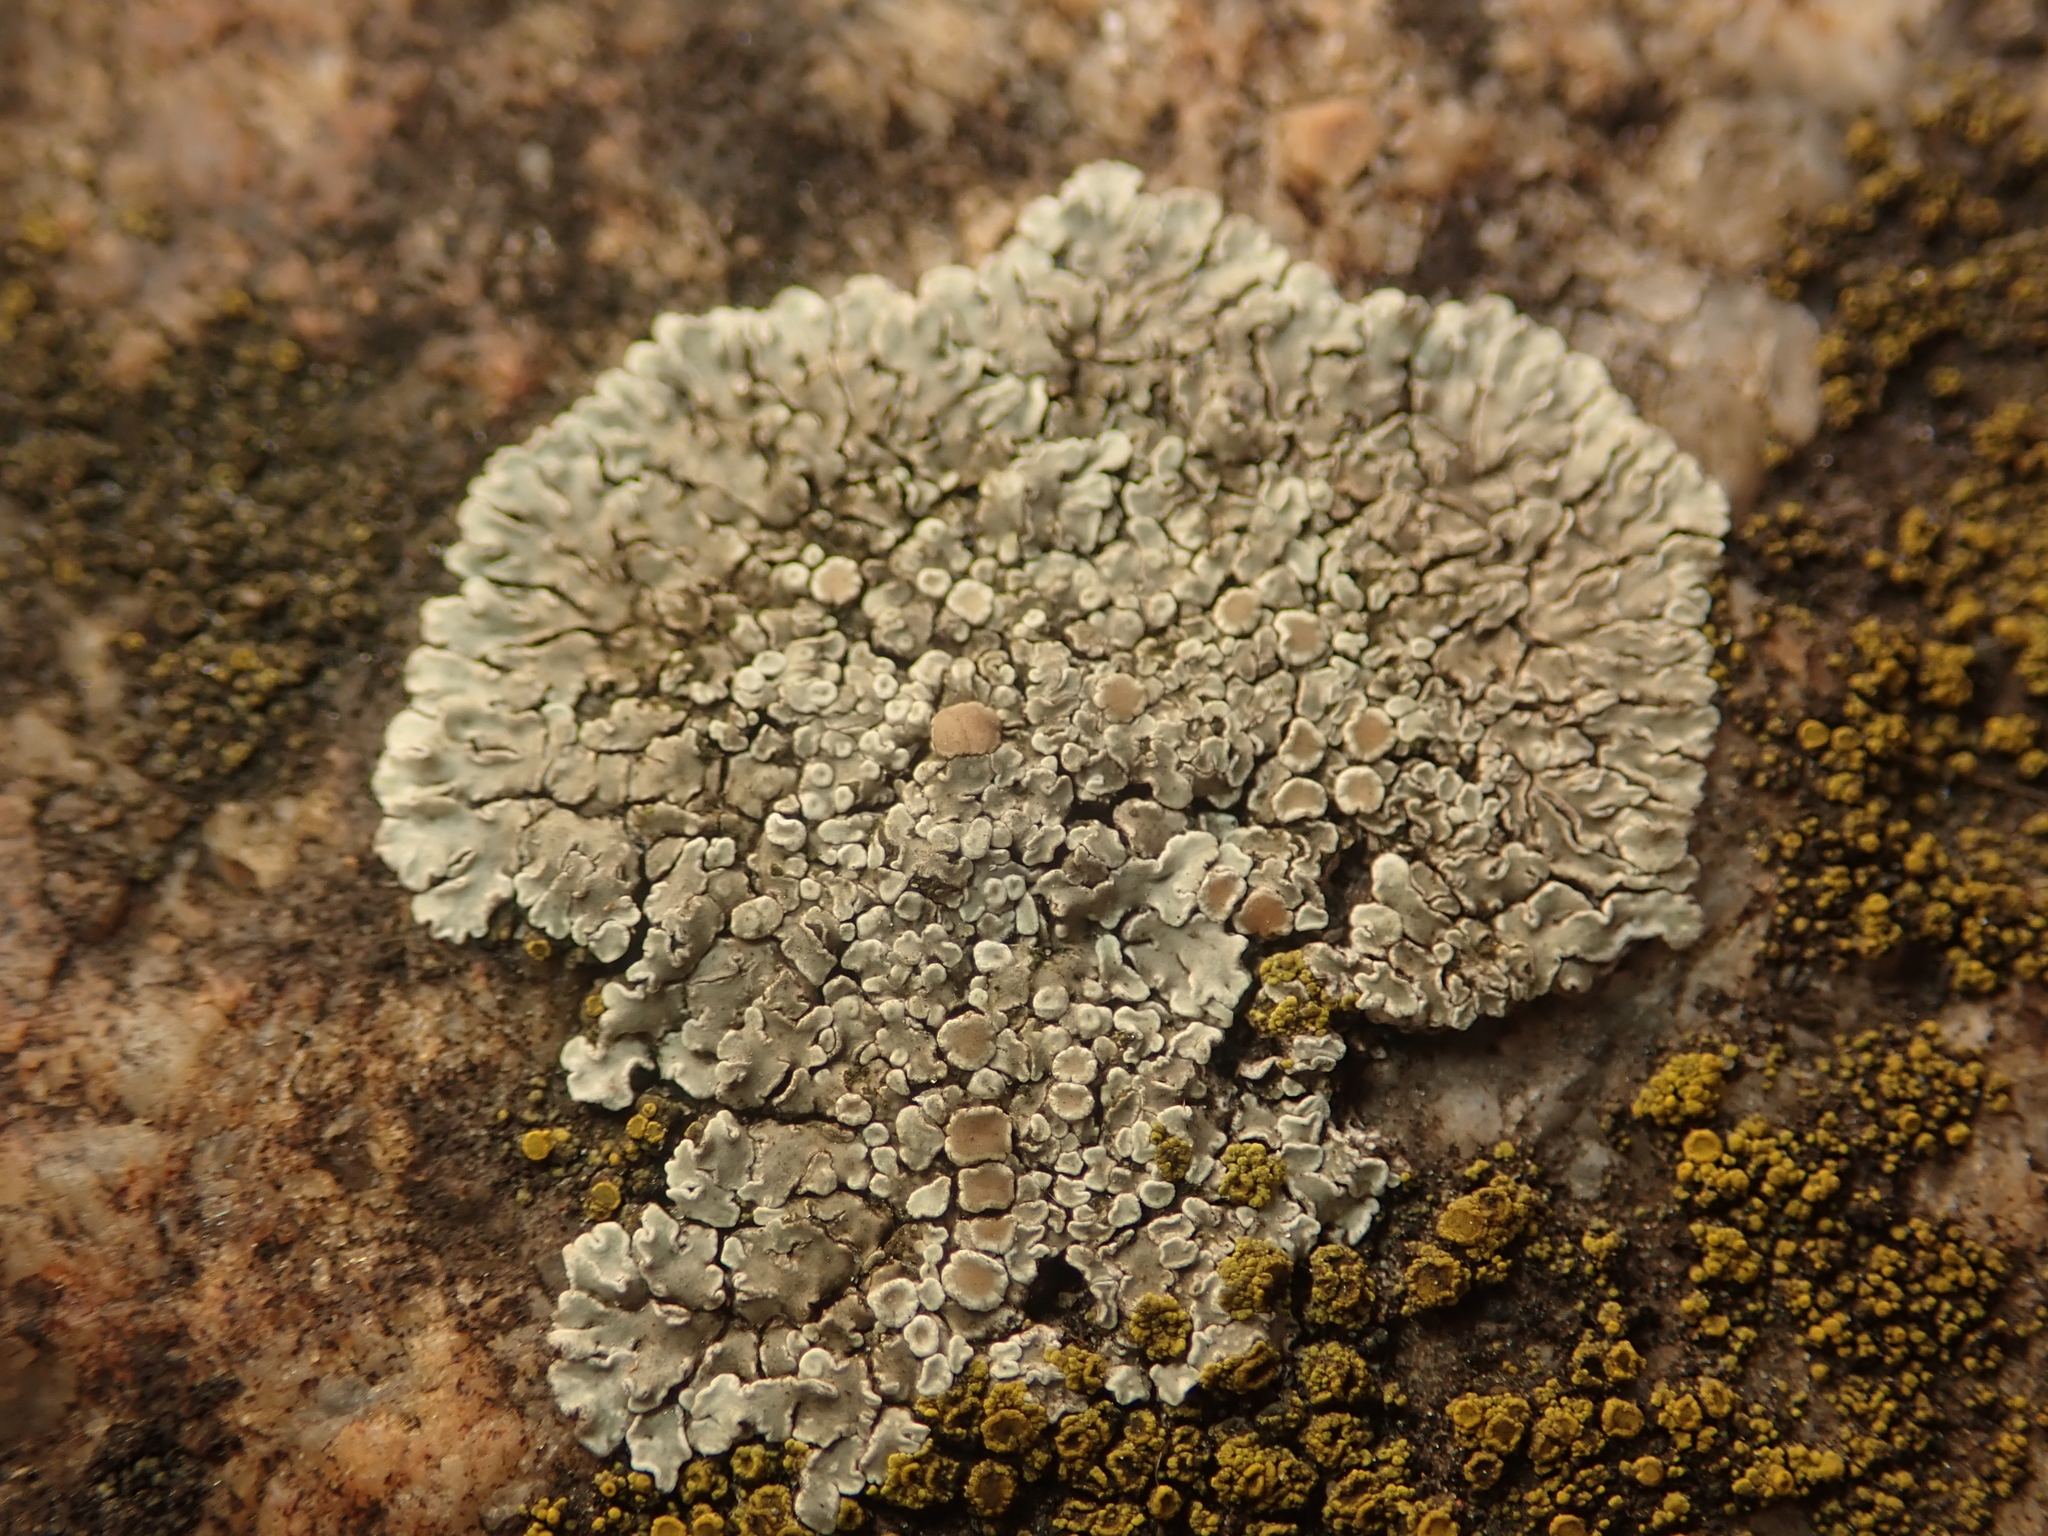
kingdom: Fungi
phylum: Ascomycota
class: Lecanoromycetes
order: Lecanorales
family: Lecanoraceae
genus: Protoparmeliopsis
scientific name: Protoparmeliopsis muralis
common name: Stonewall rim lichen
